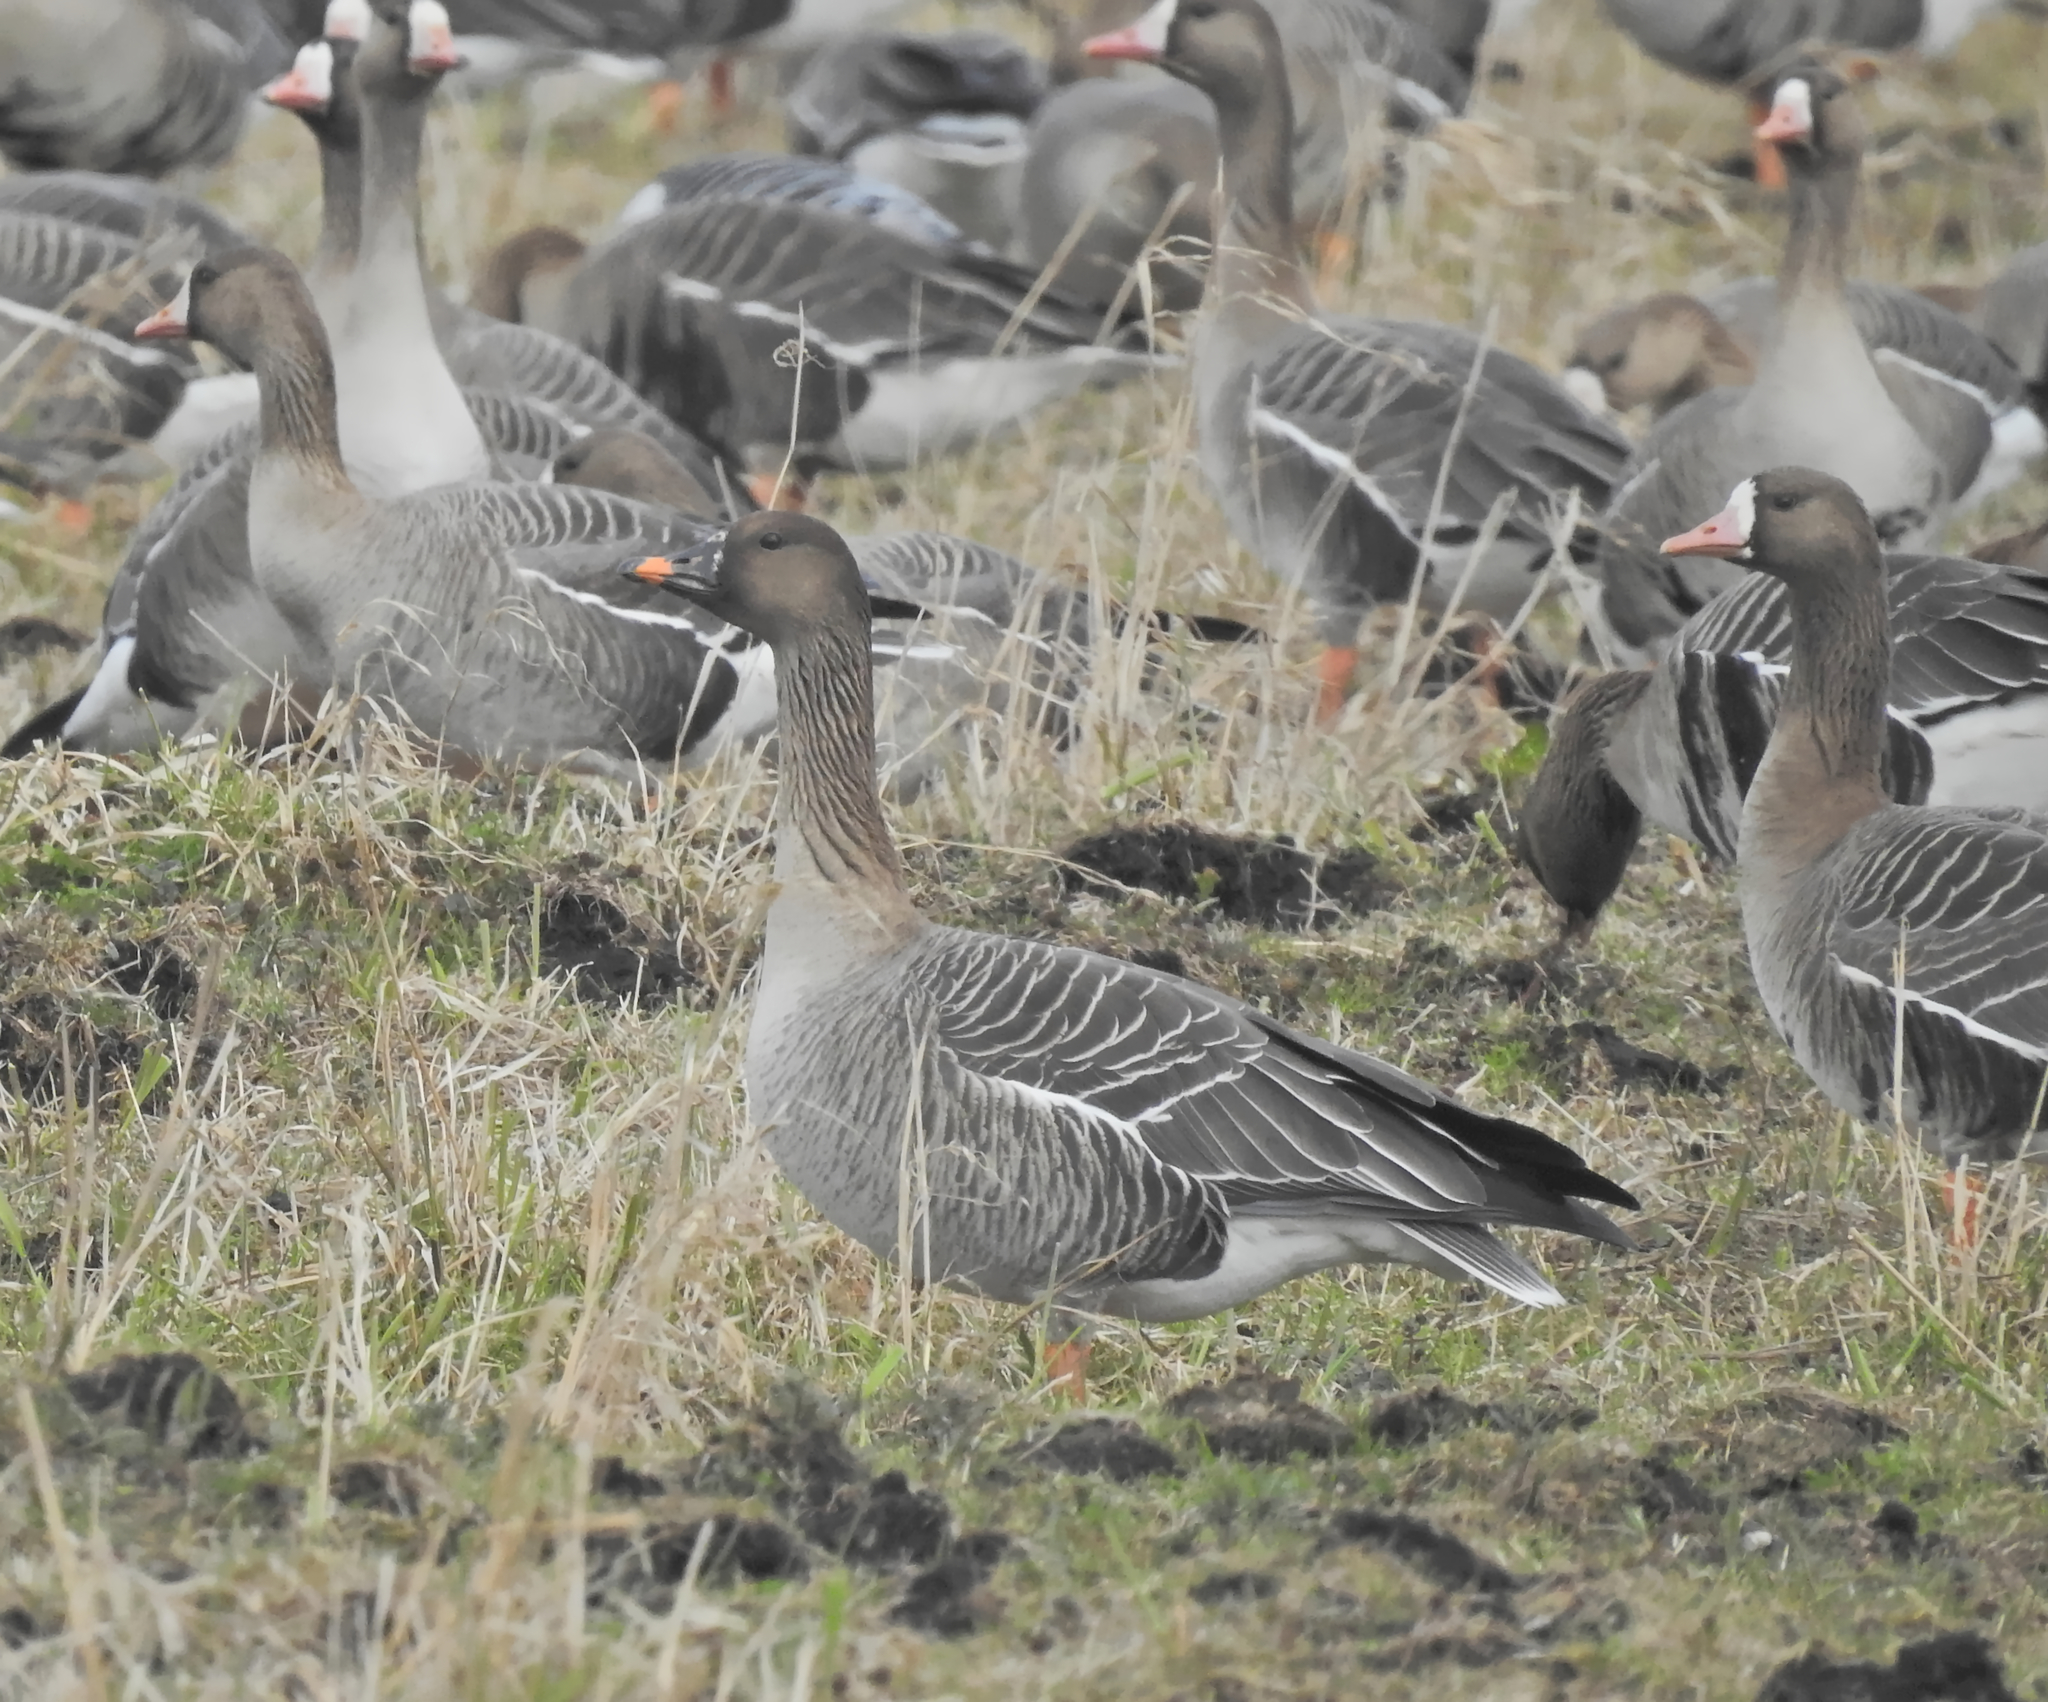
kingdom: Animalia
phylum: Chordata
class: Aves
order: Anseriformes
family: Anatidae
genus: Anser
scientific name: Anser serrirostris
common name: Tundra bean goose
